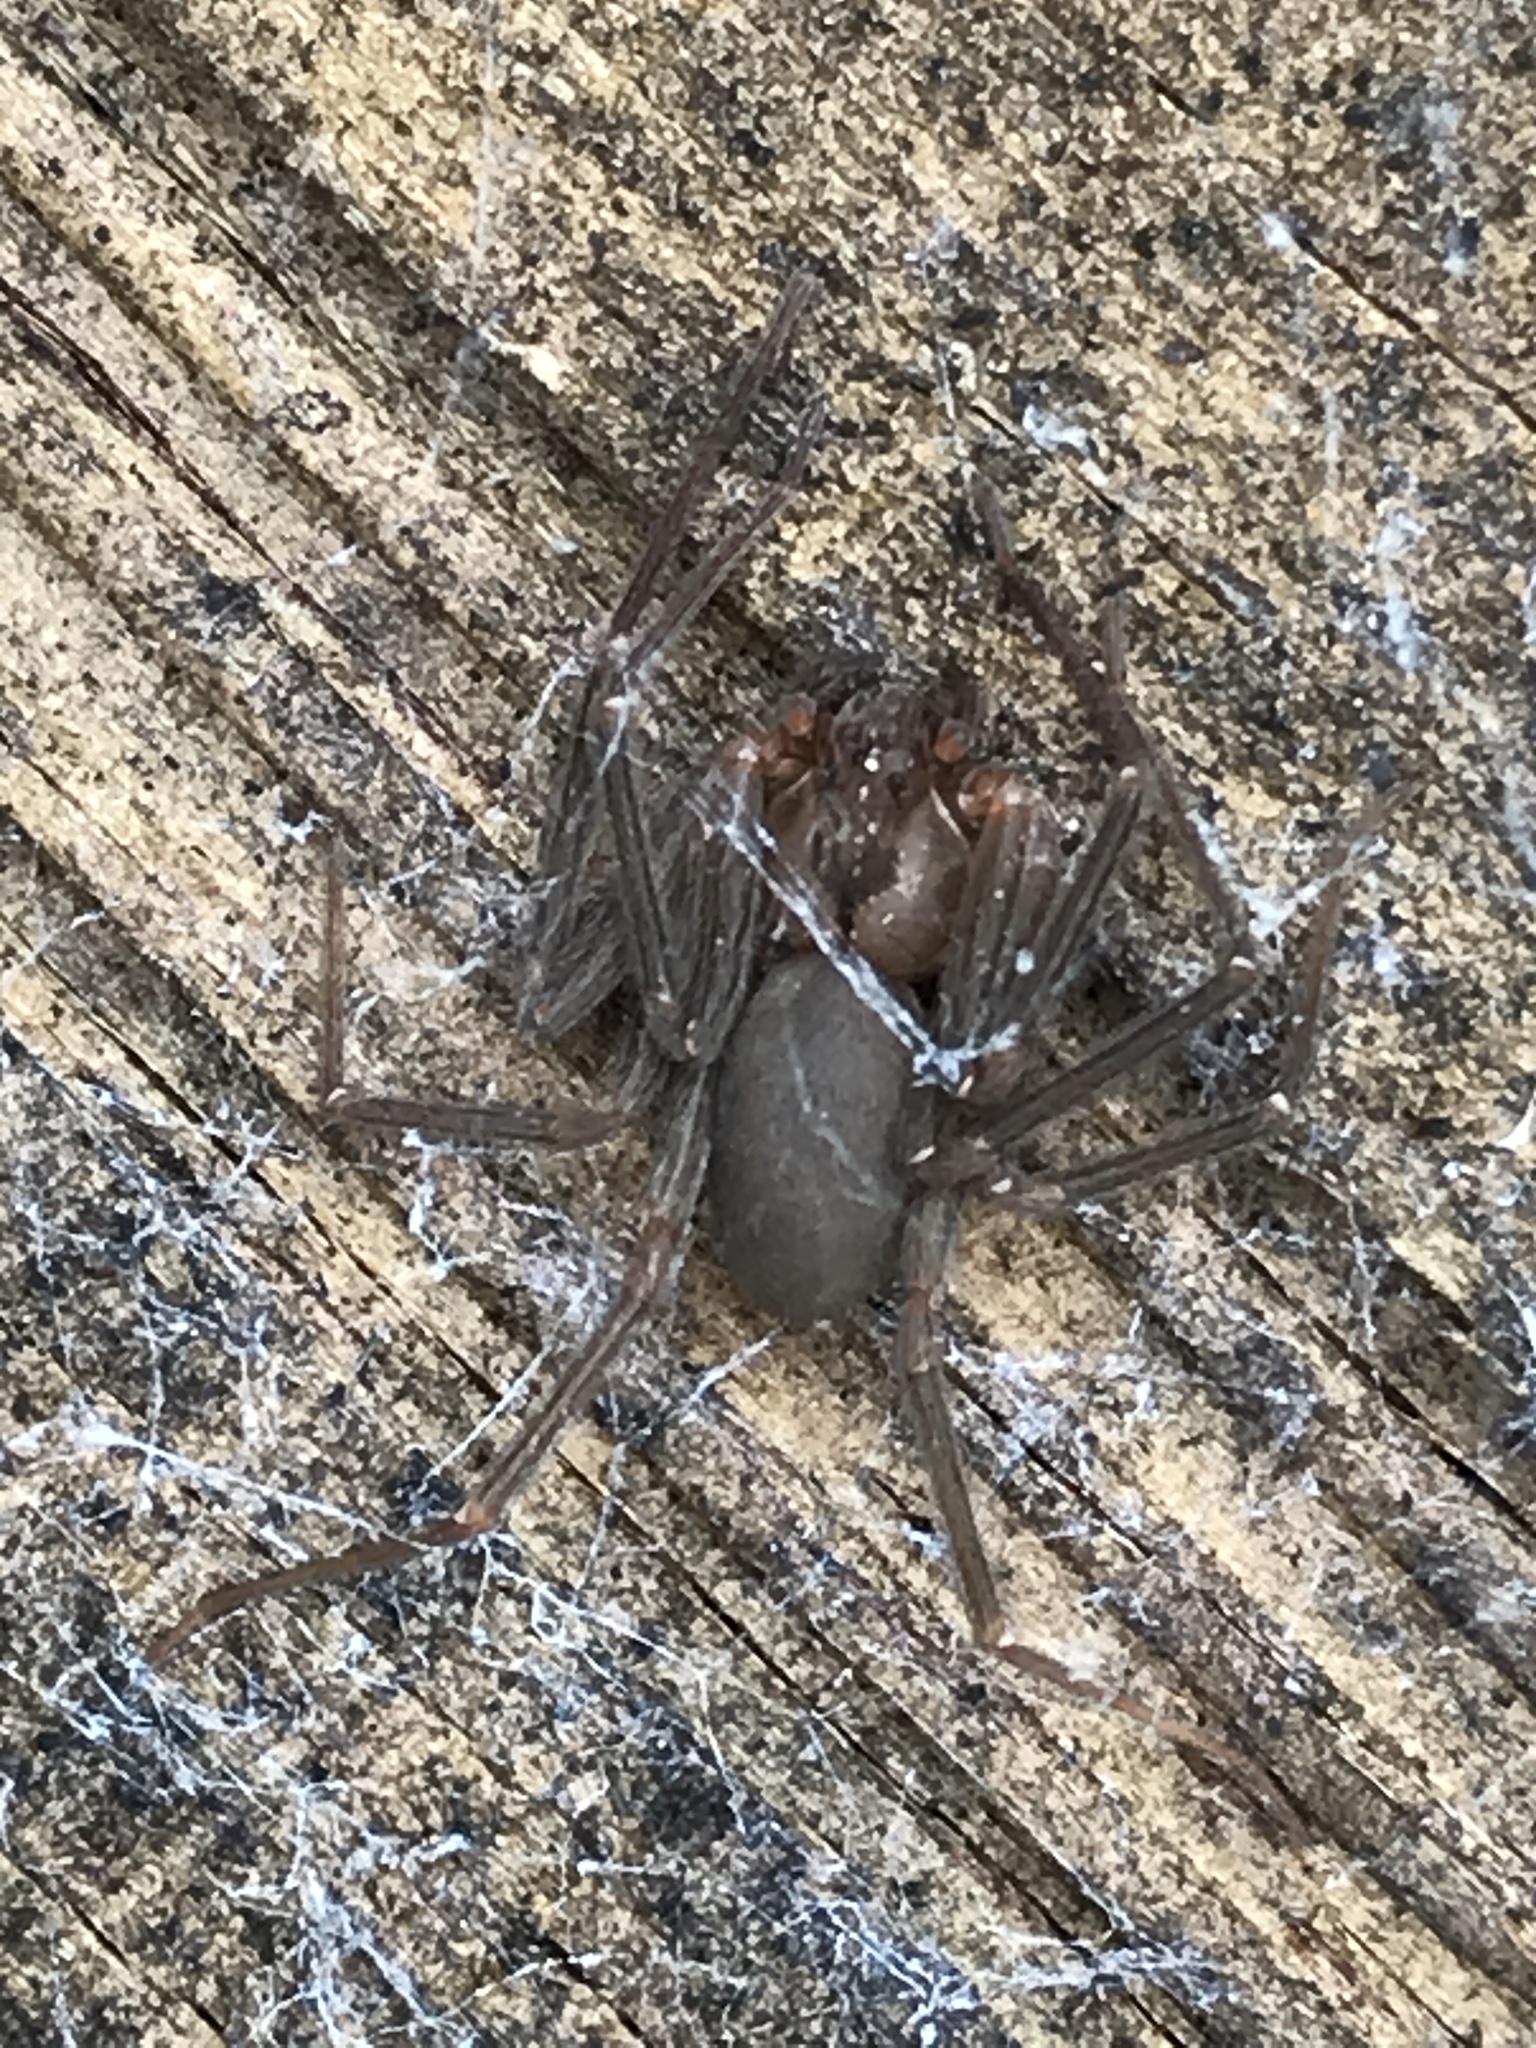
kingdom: Animalia
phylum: Arthropoda
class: Arachnida
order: Araneae
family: Sicariidae
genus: Loxosceles
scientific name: Loxosceles reclusa
